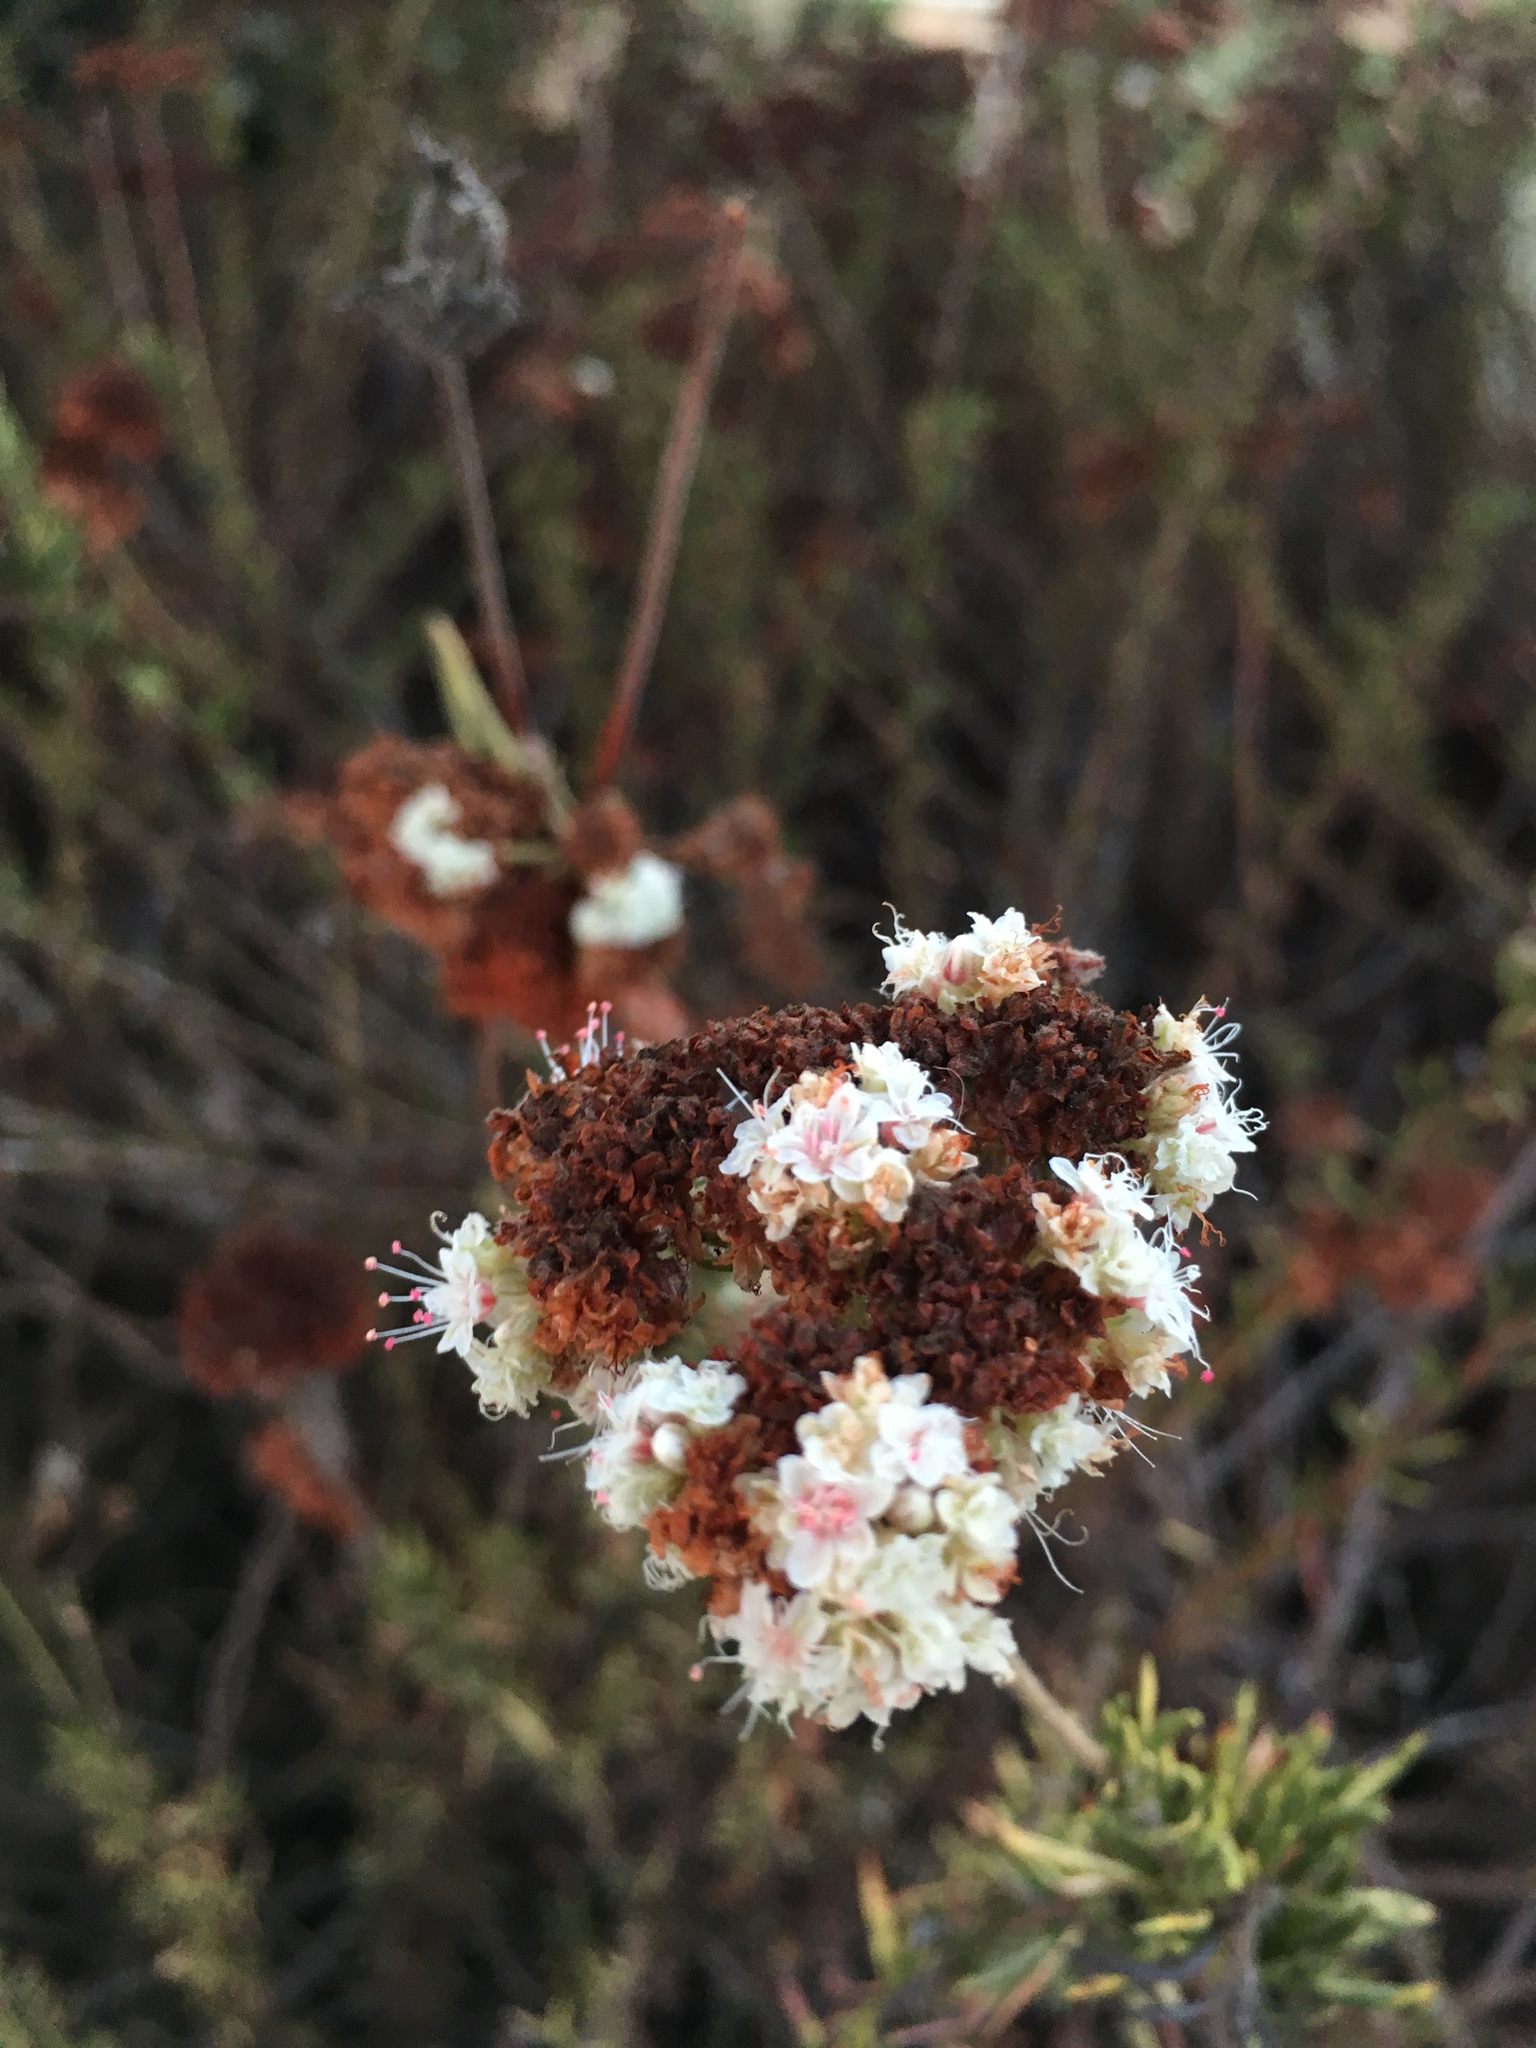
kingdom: Plantae
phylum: Tracheophyta
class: Magnoliopsida
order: Caryophyllales
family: Polygonaceae
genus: Eriogonum
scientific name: Eriogonum fasciculatum
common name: California wild buckwheat
